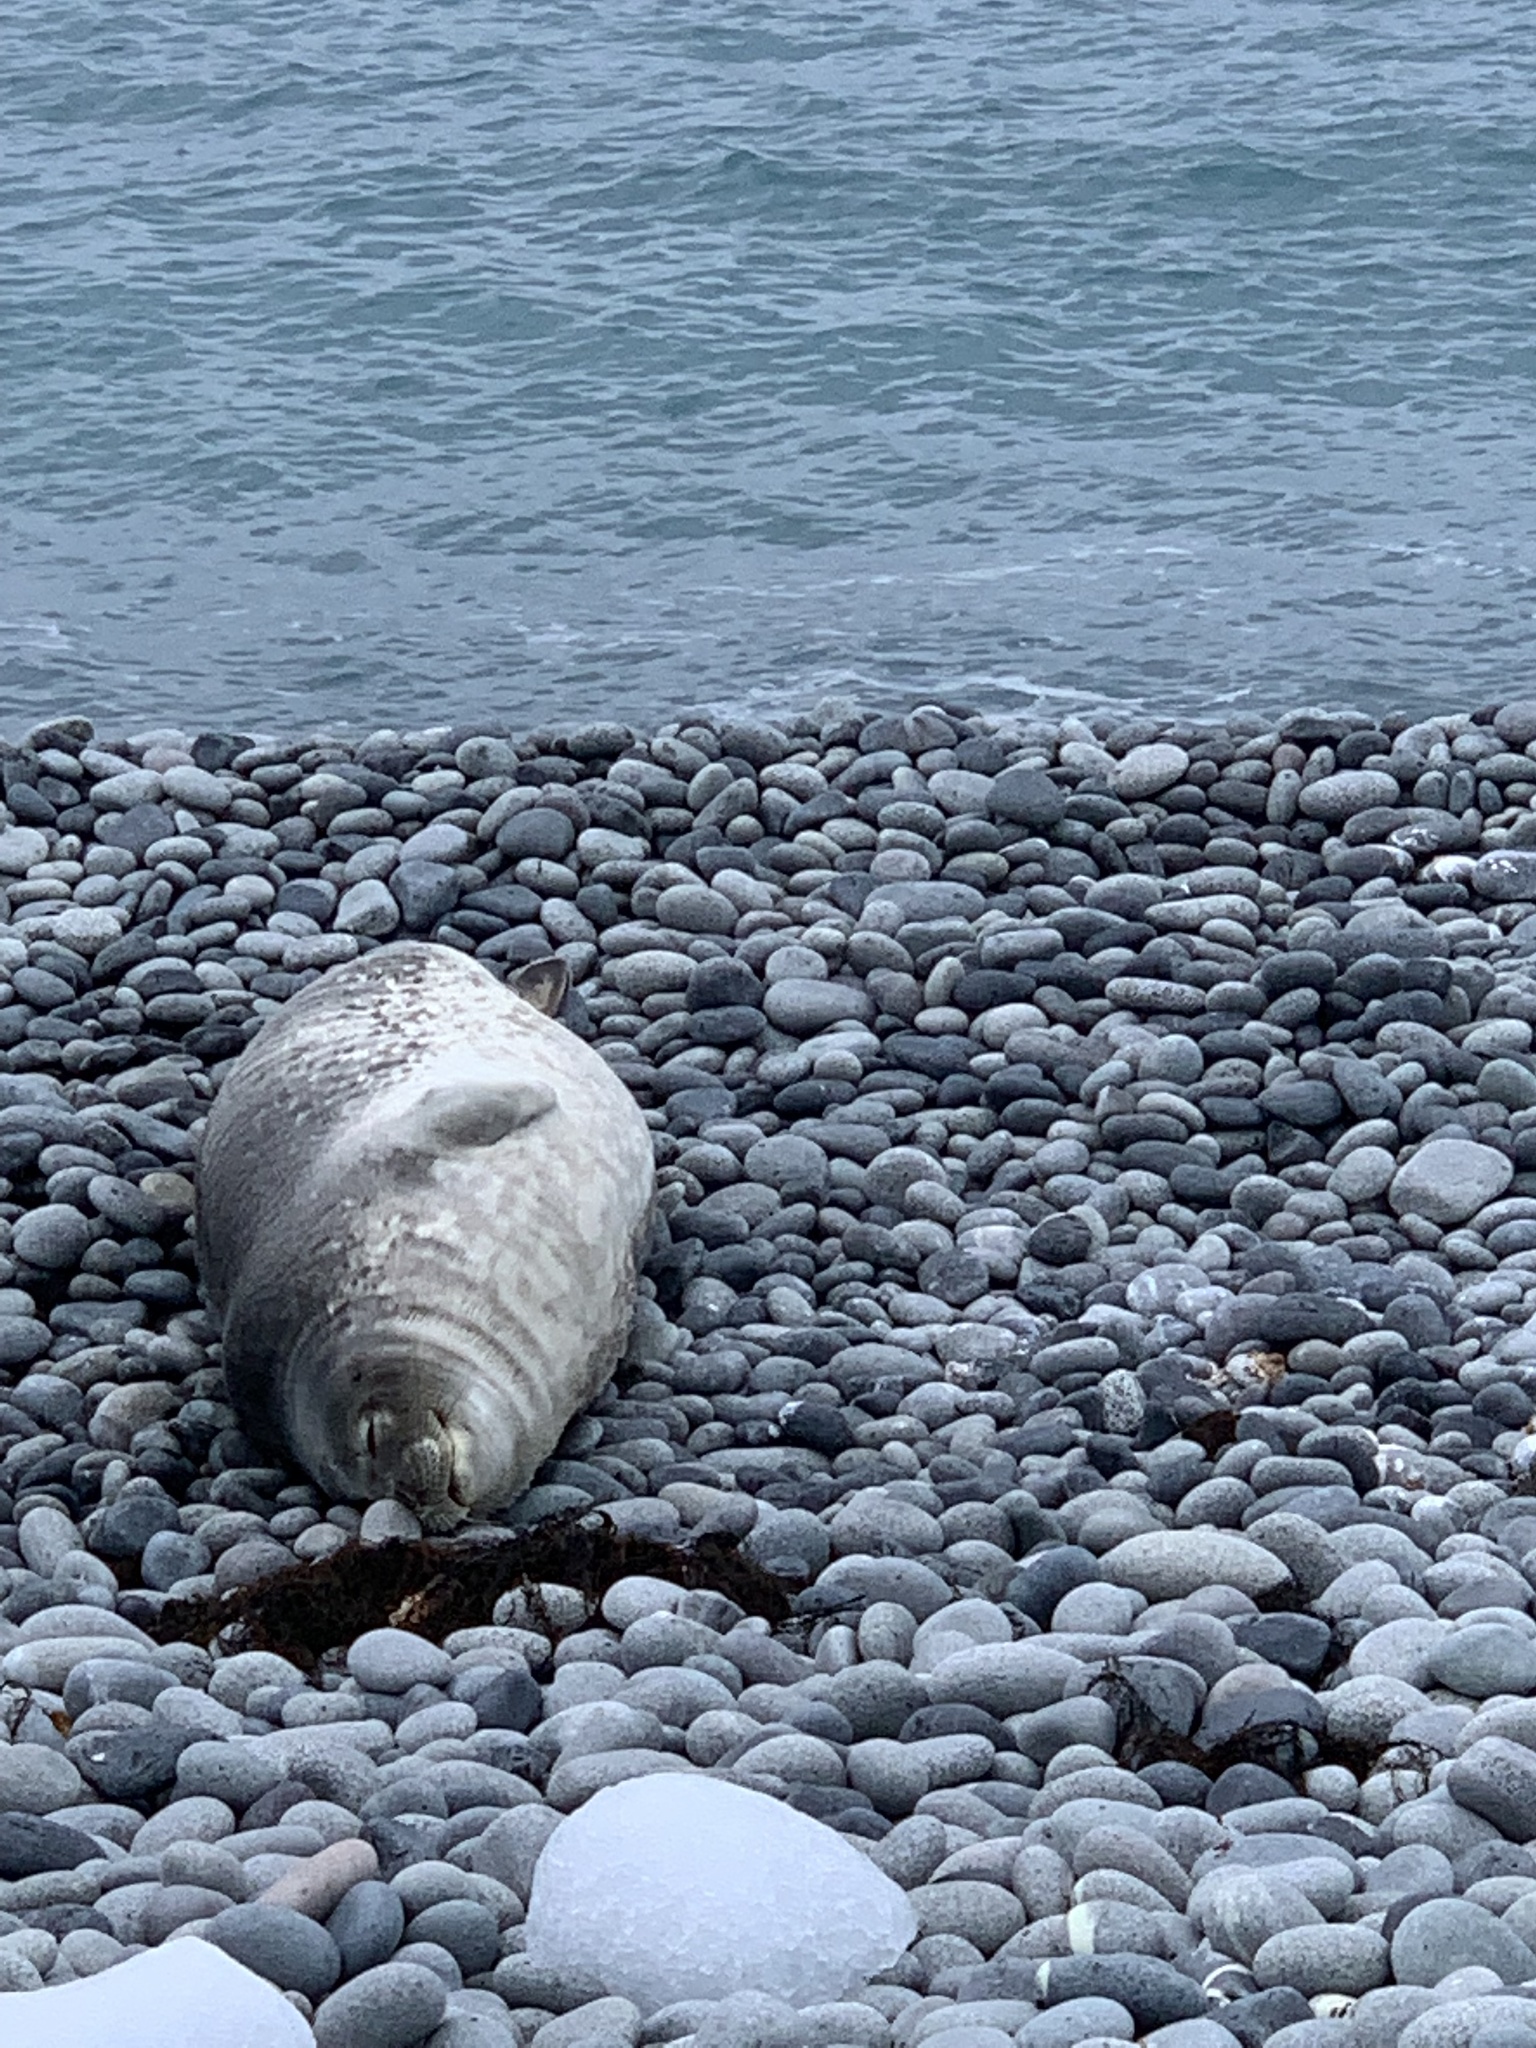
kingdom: Animalia
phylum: Chordata
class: Mammalia
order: Carnivora
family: Phocidae
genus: Leptonychotes
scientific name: Leptonychotes weddellii
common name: Weddell seal
